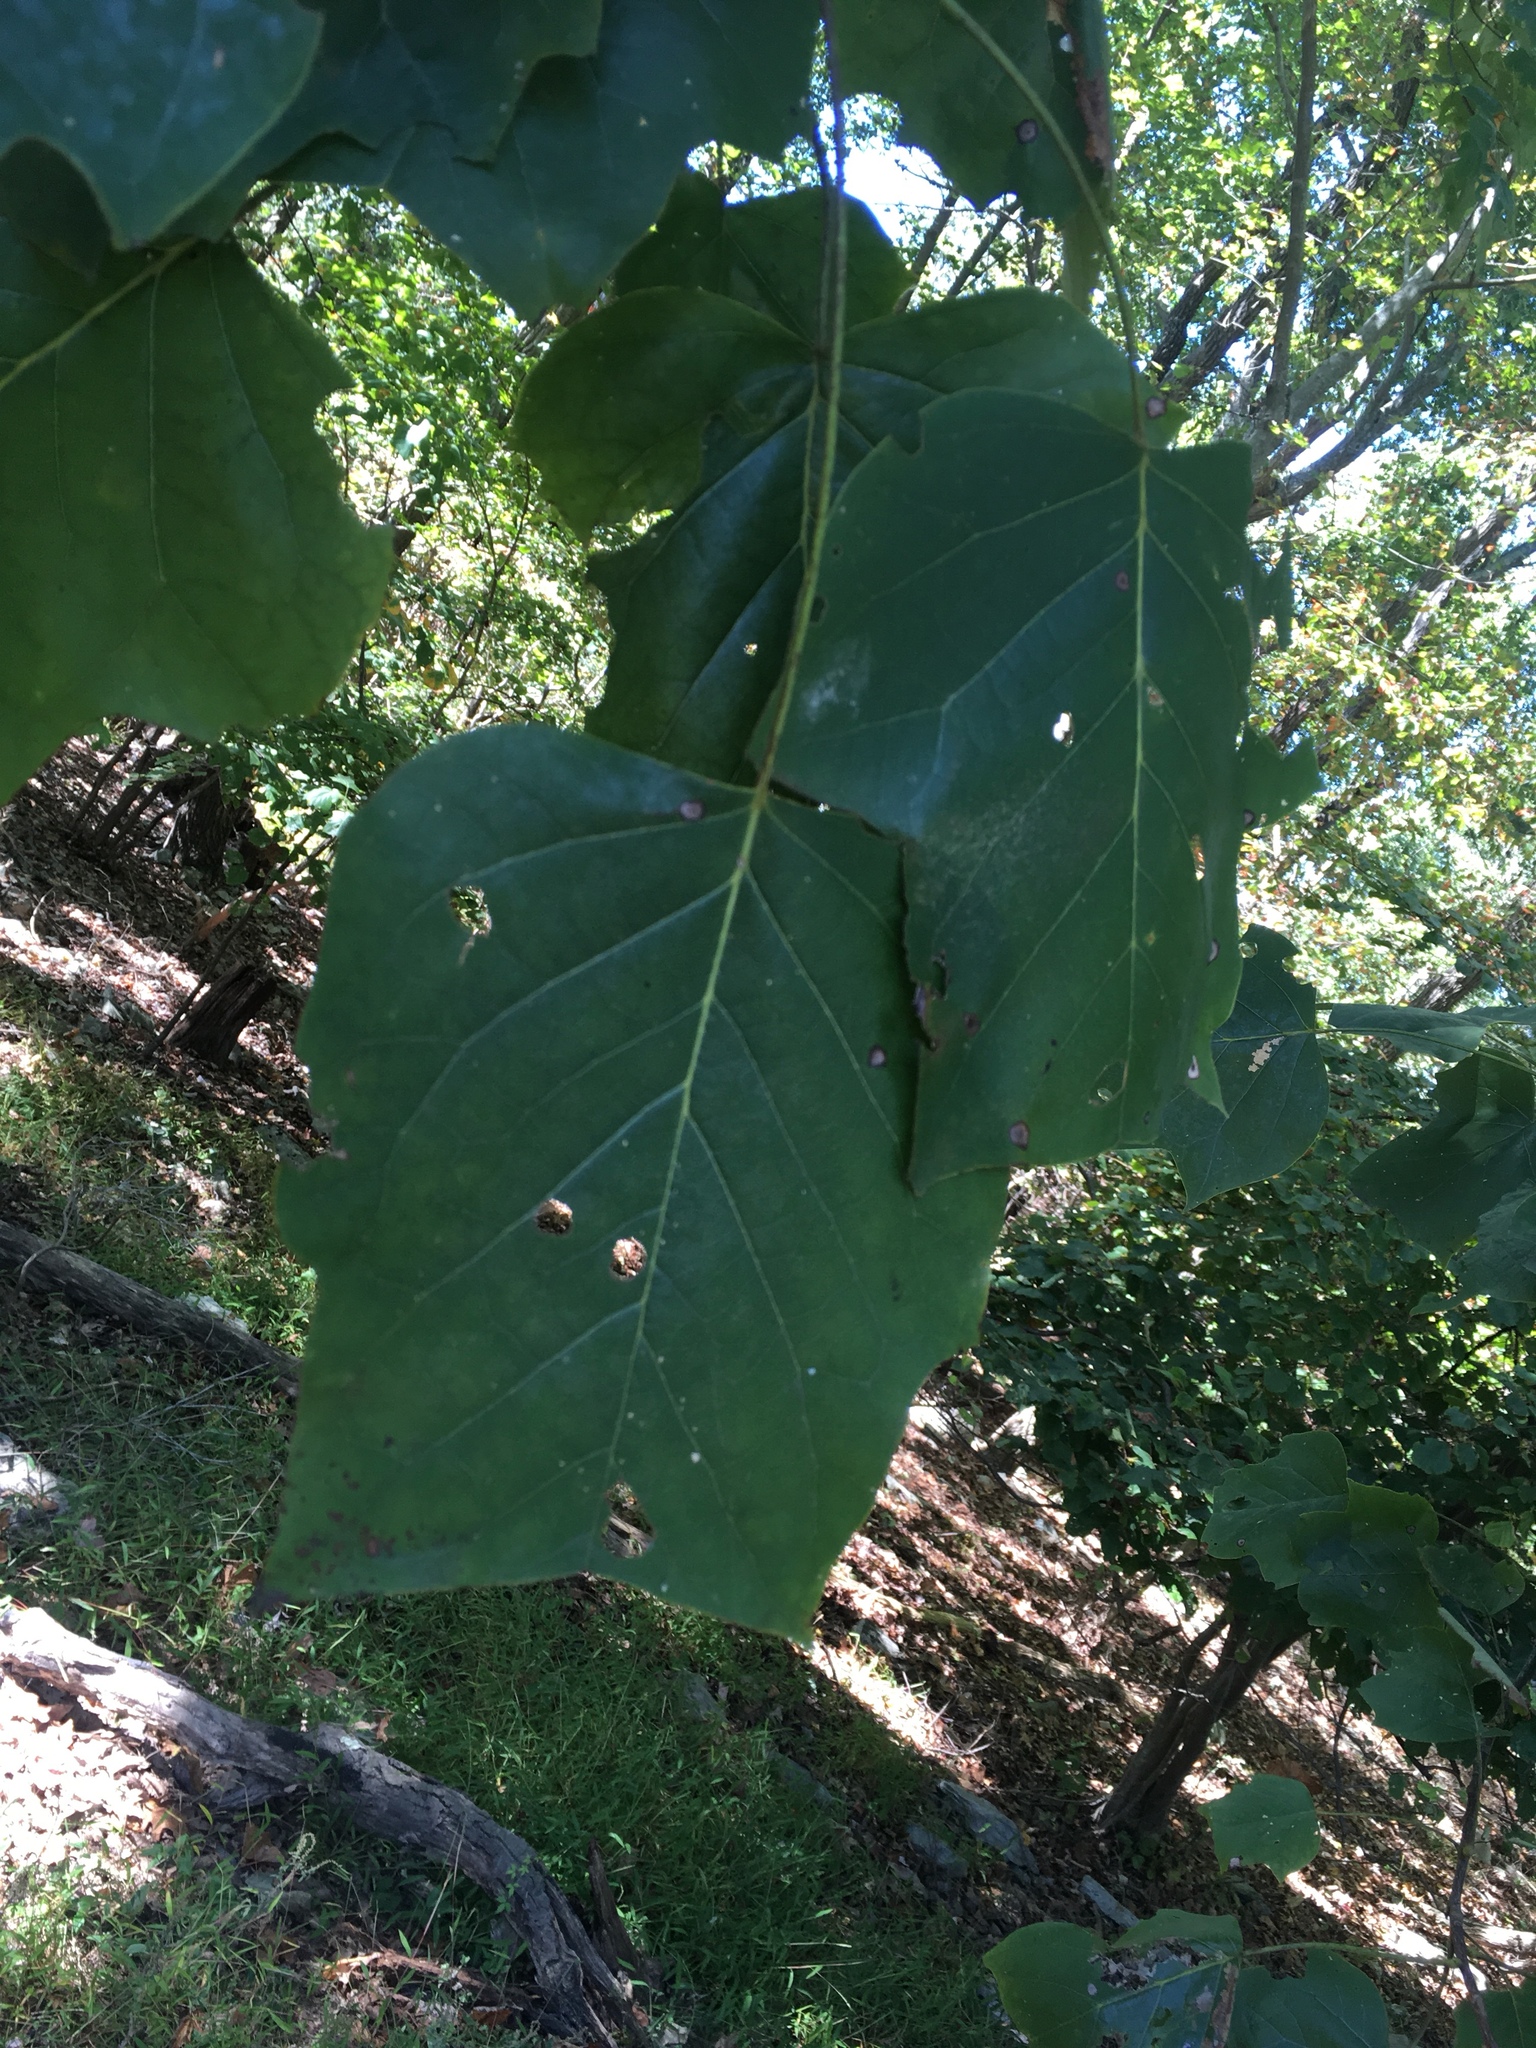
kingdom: Plantae
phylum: Tracheophyta
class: Magnoliopsida
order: Magnoliales
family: Magnoliaceae
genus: Liriodendron
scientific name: Liriodendron tulipifera
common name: Tulip tree
